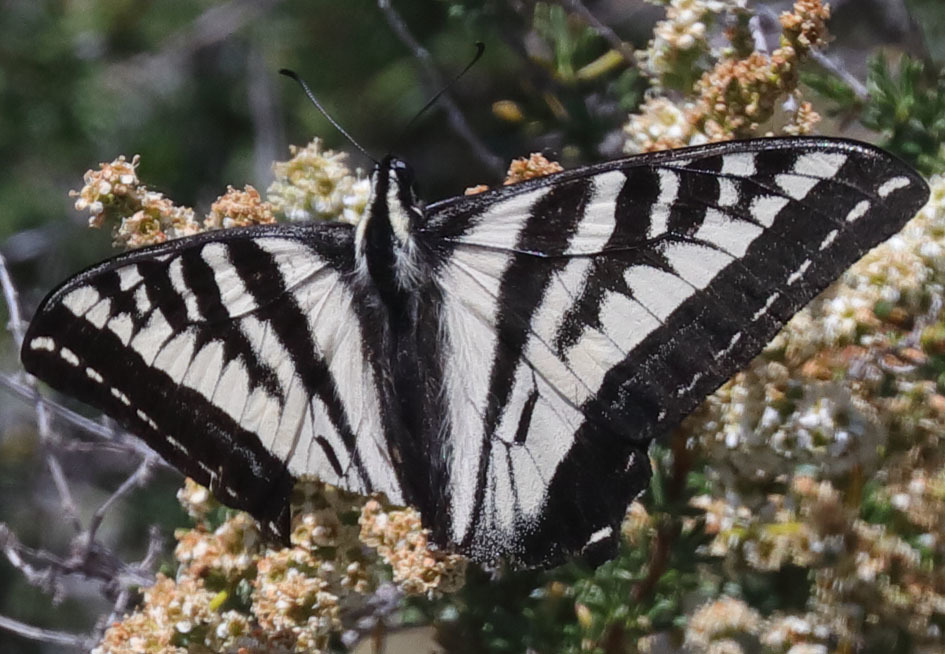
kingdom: Animalia
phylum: Arthropoda
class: Insecta
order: Lepidoptera
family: Papilionidae
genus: Papilio
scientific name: Papilio eurymedon
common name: Pale tiger swallowtail
